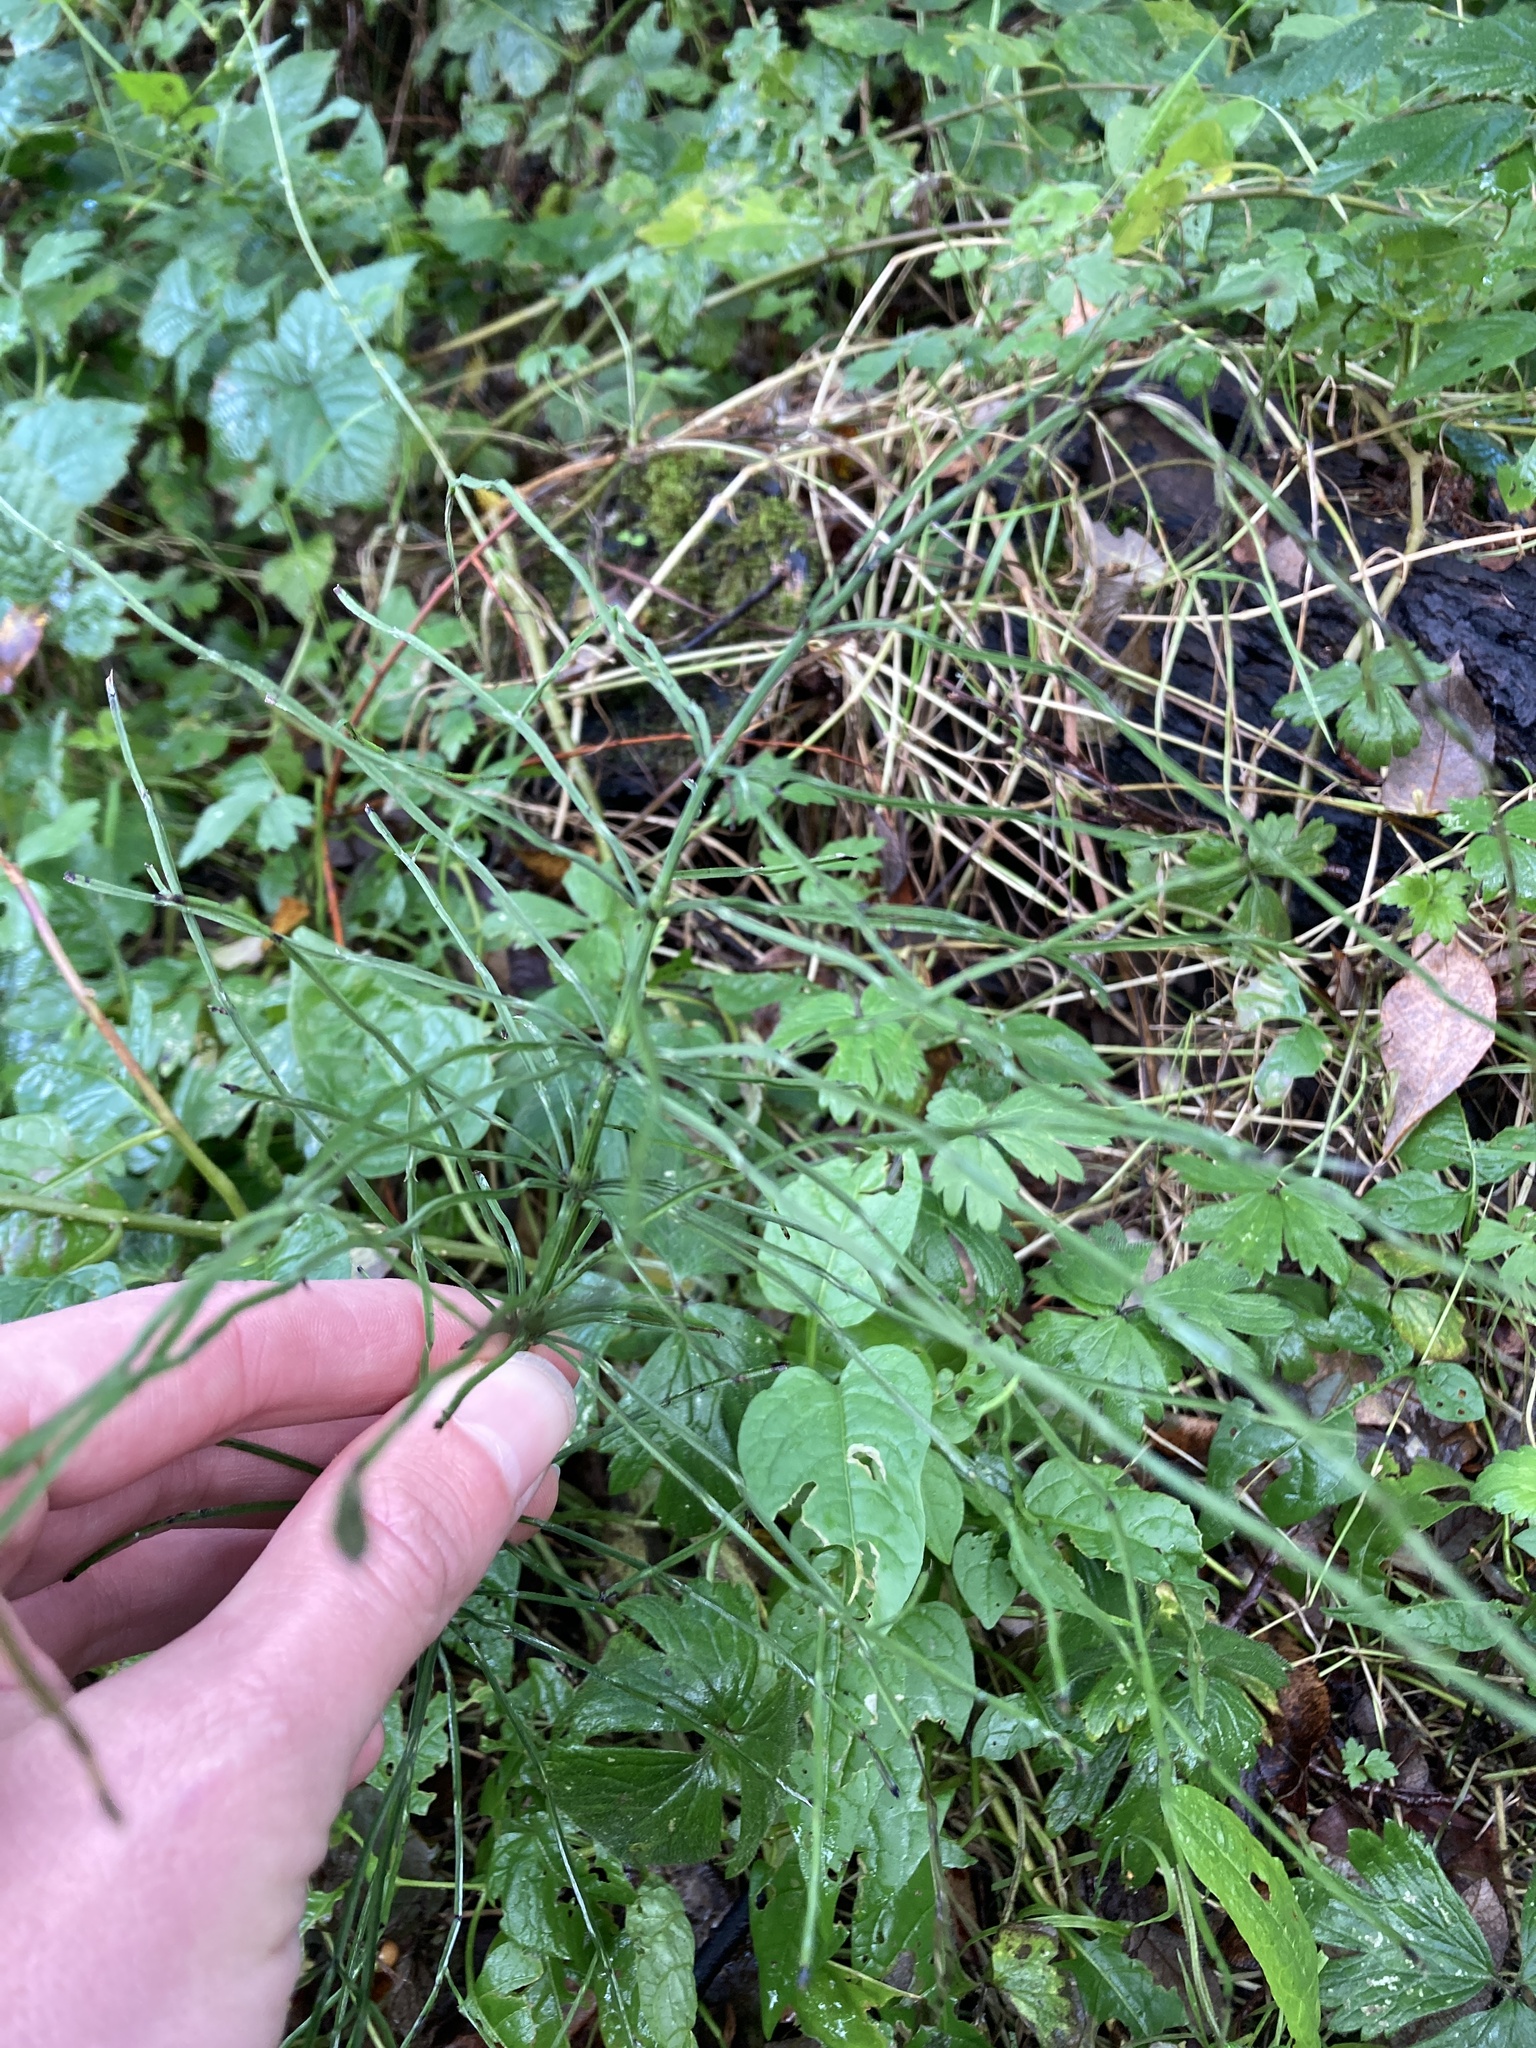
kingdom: Plantae
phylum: Tracheophyta
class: Polypodiopsida
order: Equisetales
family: Equisetaceae
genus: Equisetum
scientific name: Equisetum arvense
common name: Field horsetail
